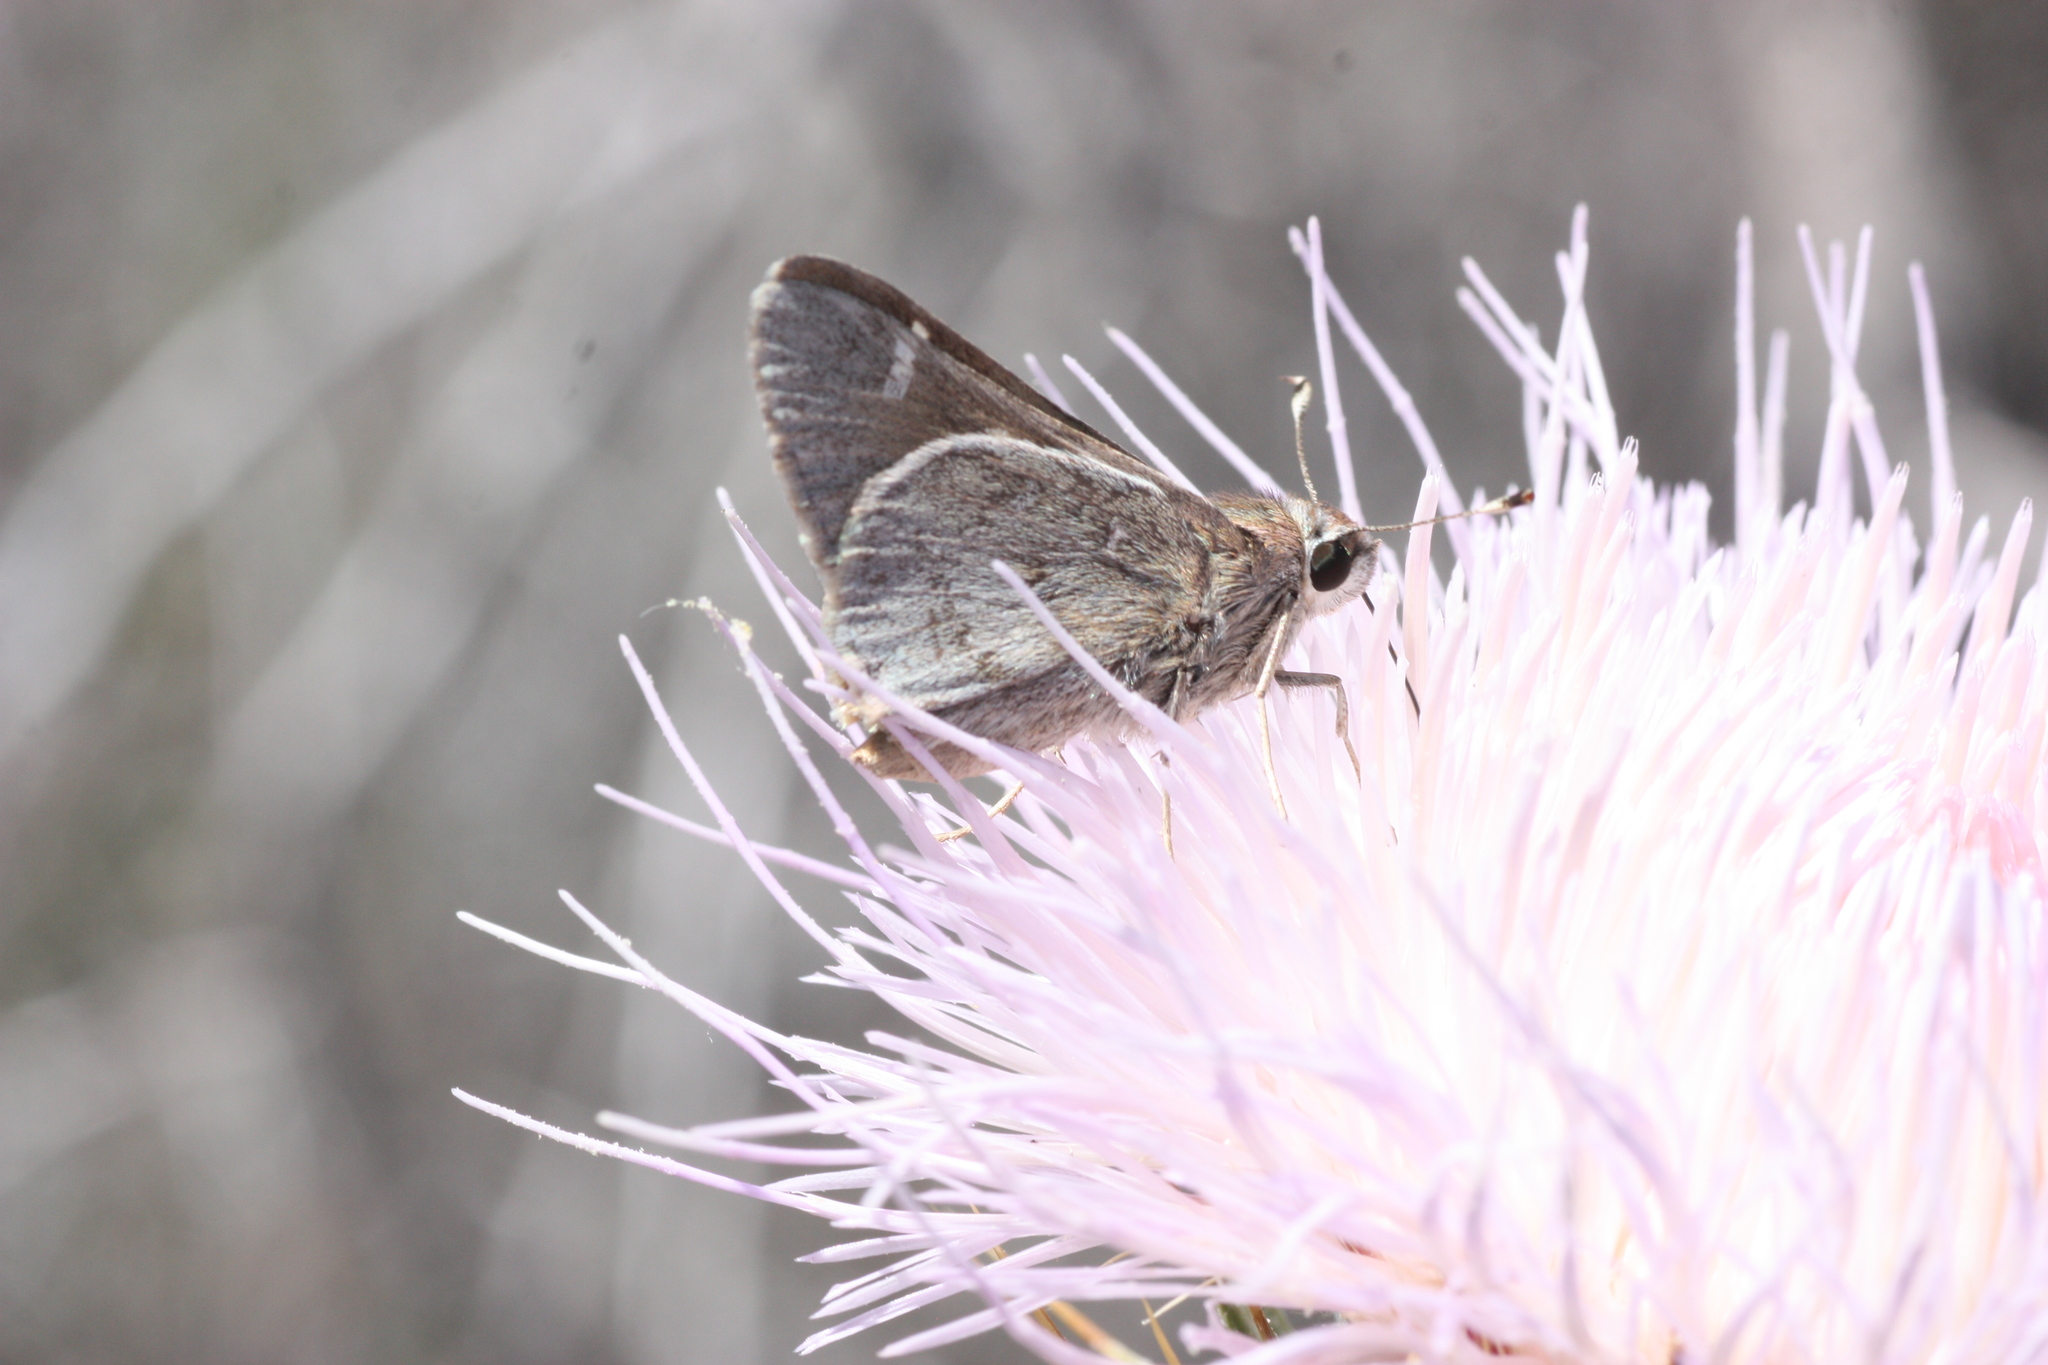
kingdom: Animalia
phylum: Arthropoda
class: Insecta
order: Lepidoptera
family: Hesperiidae
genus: Atrytonopsis
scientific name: Atrytonopsis vierecki
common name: Viereck's skipper
